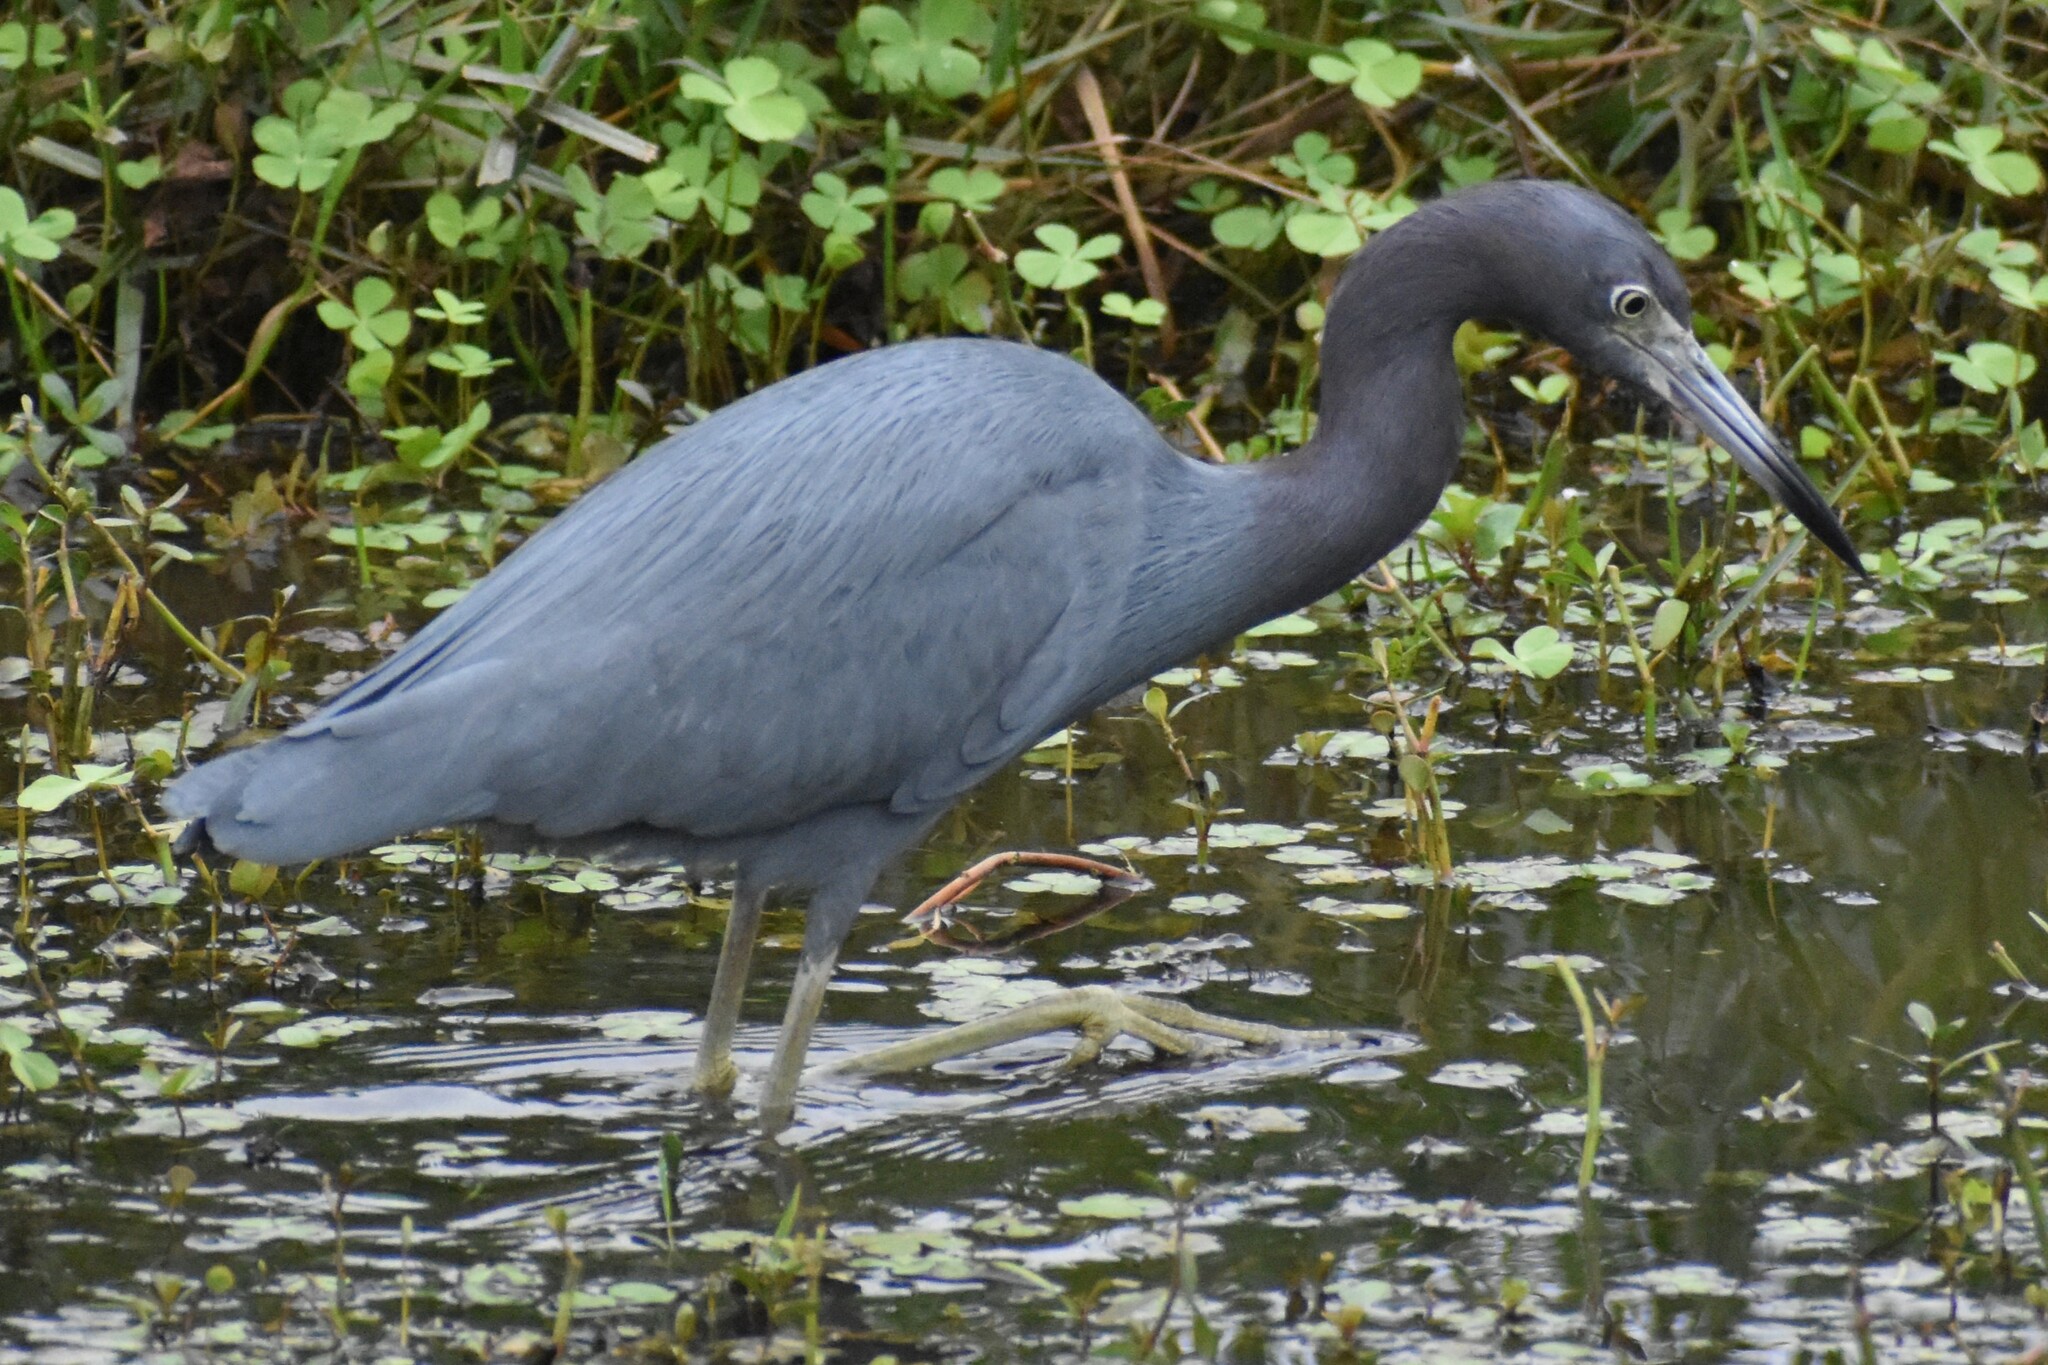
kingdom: Animalia
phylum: Chordata
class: Aves
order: Pelecaniformes
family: Ardeidae
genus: Egretta
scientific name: Egretta caerulea
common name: Little blue heron
